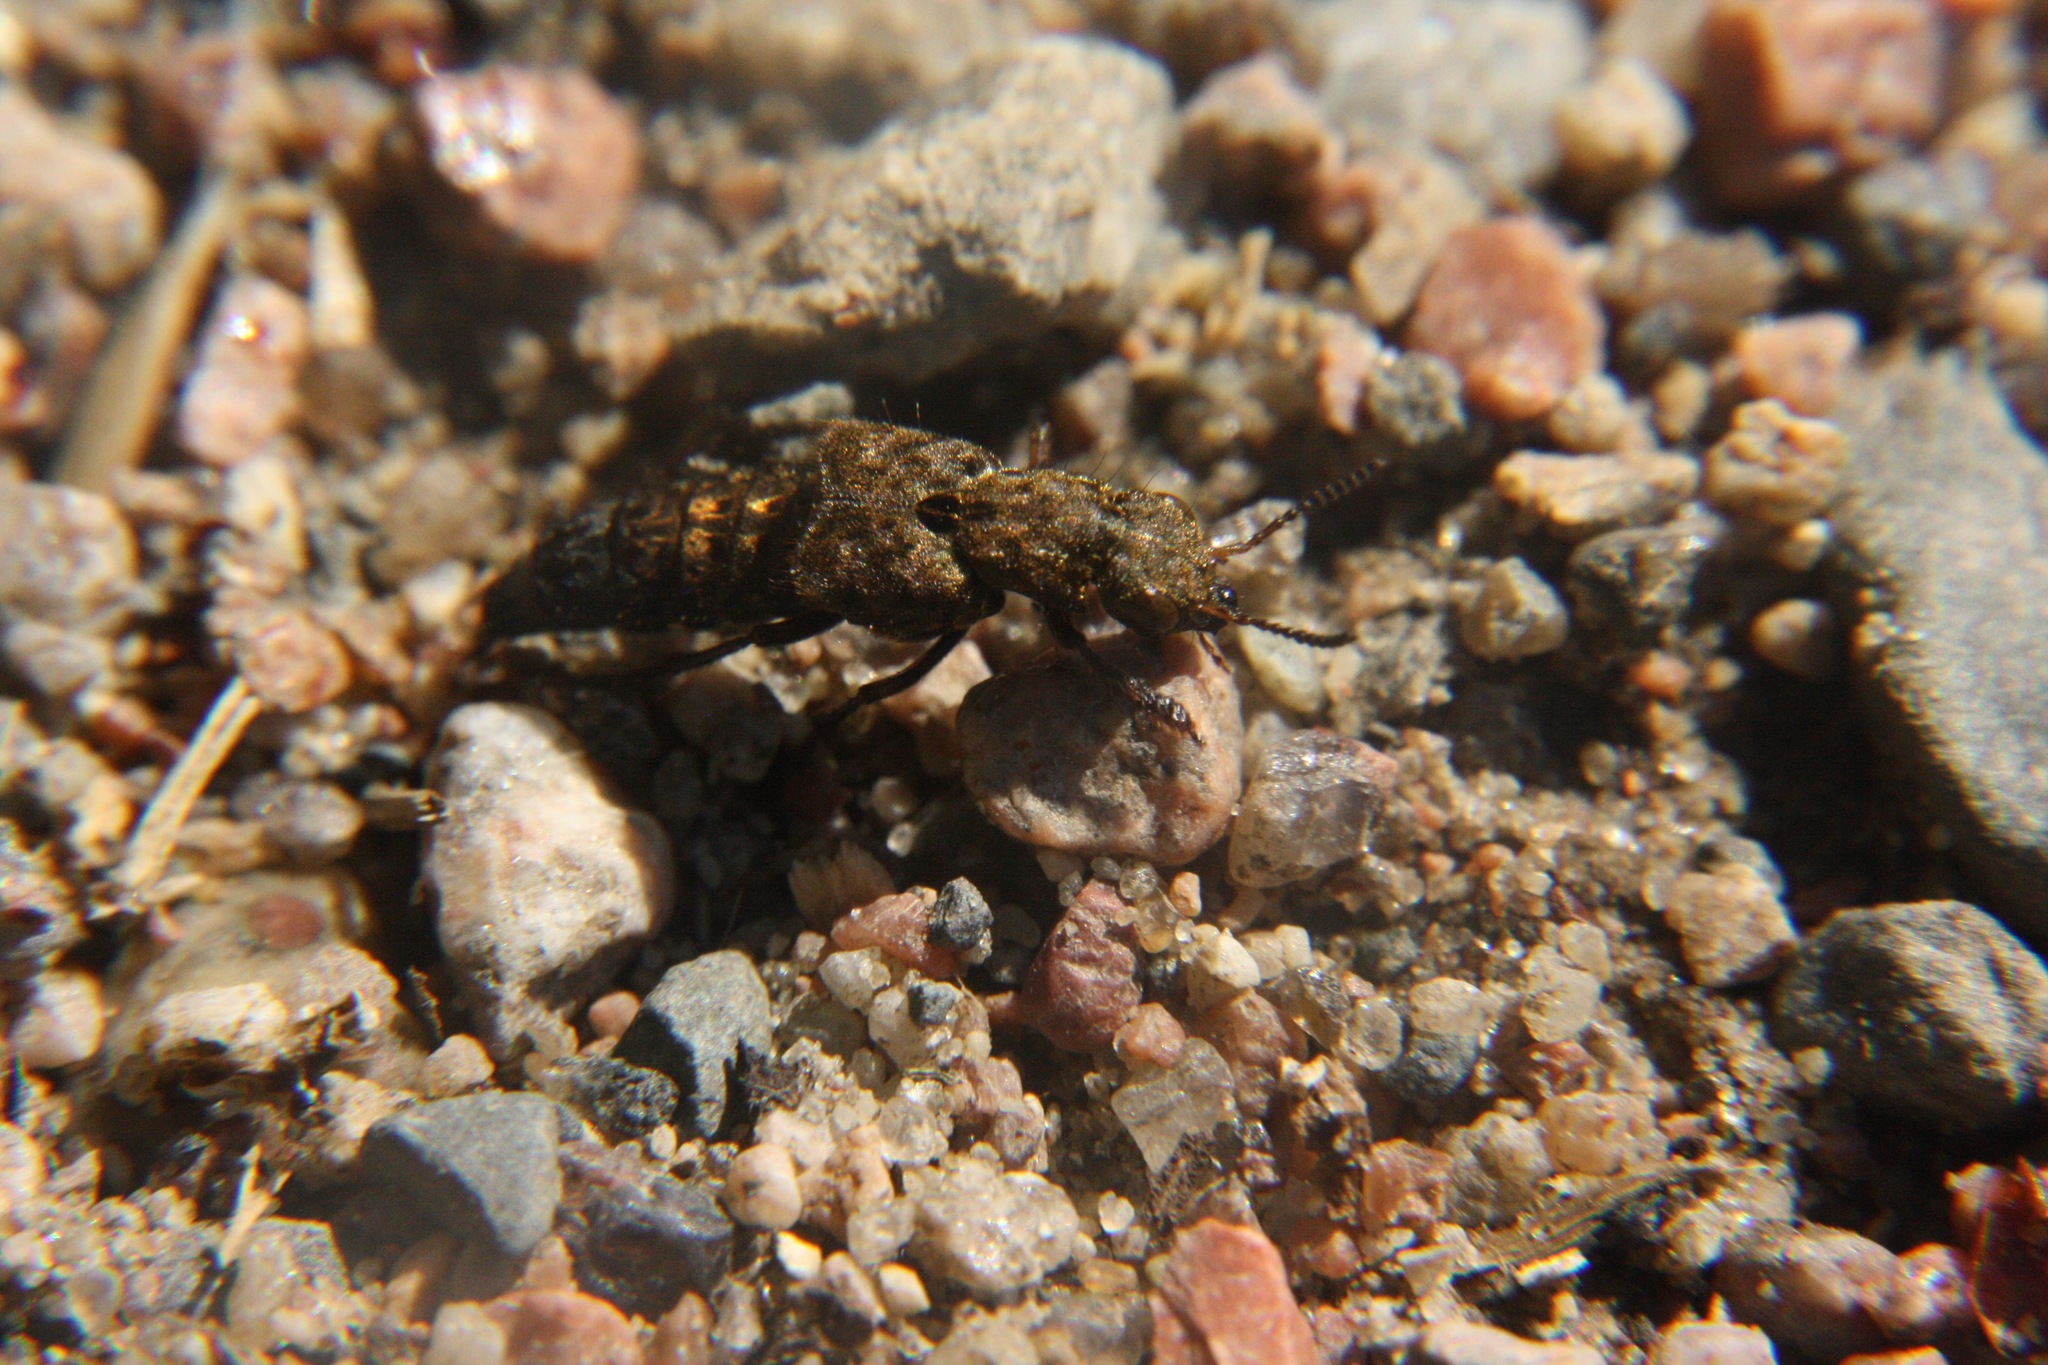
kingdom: Animalia
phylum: Arthropoda
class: Insecta
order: Coleoptera
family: Staphylinidae
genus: Ontholestes
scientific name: Ontholestes tessellatus
